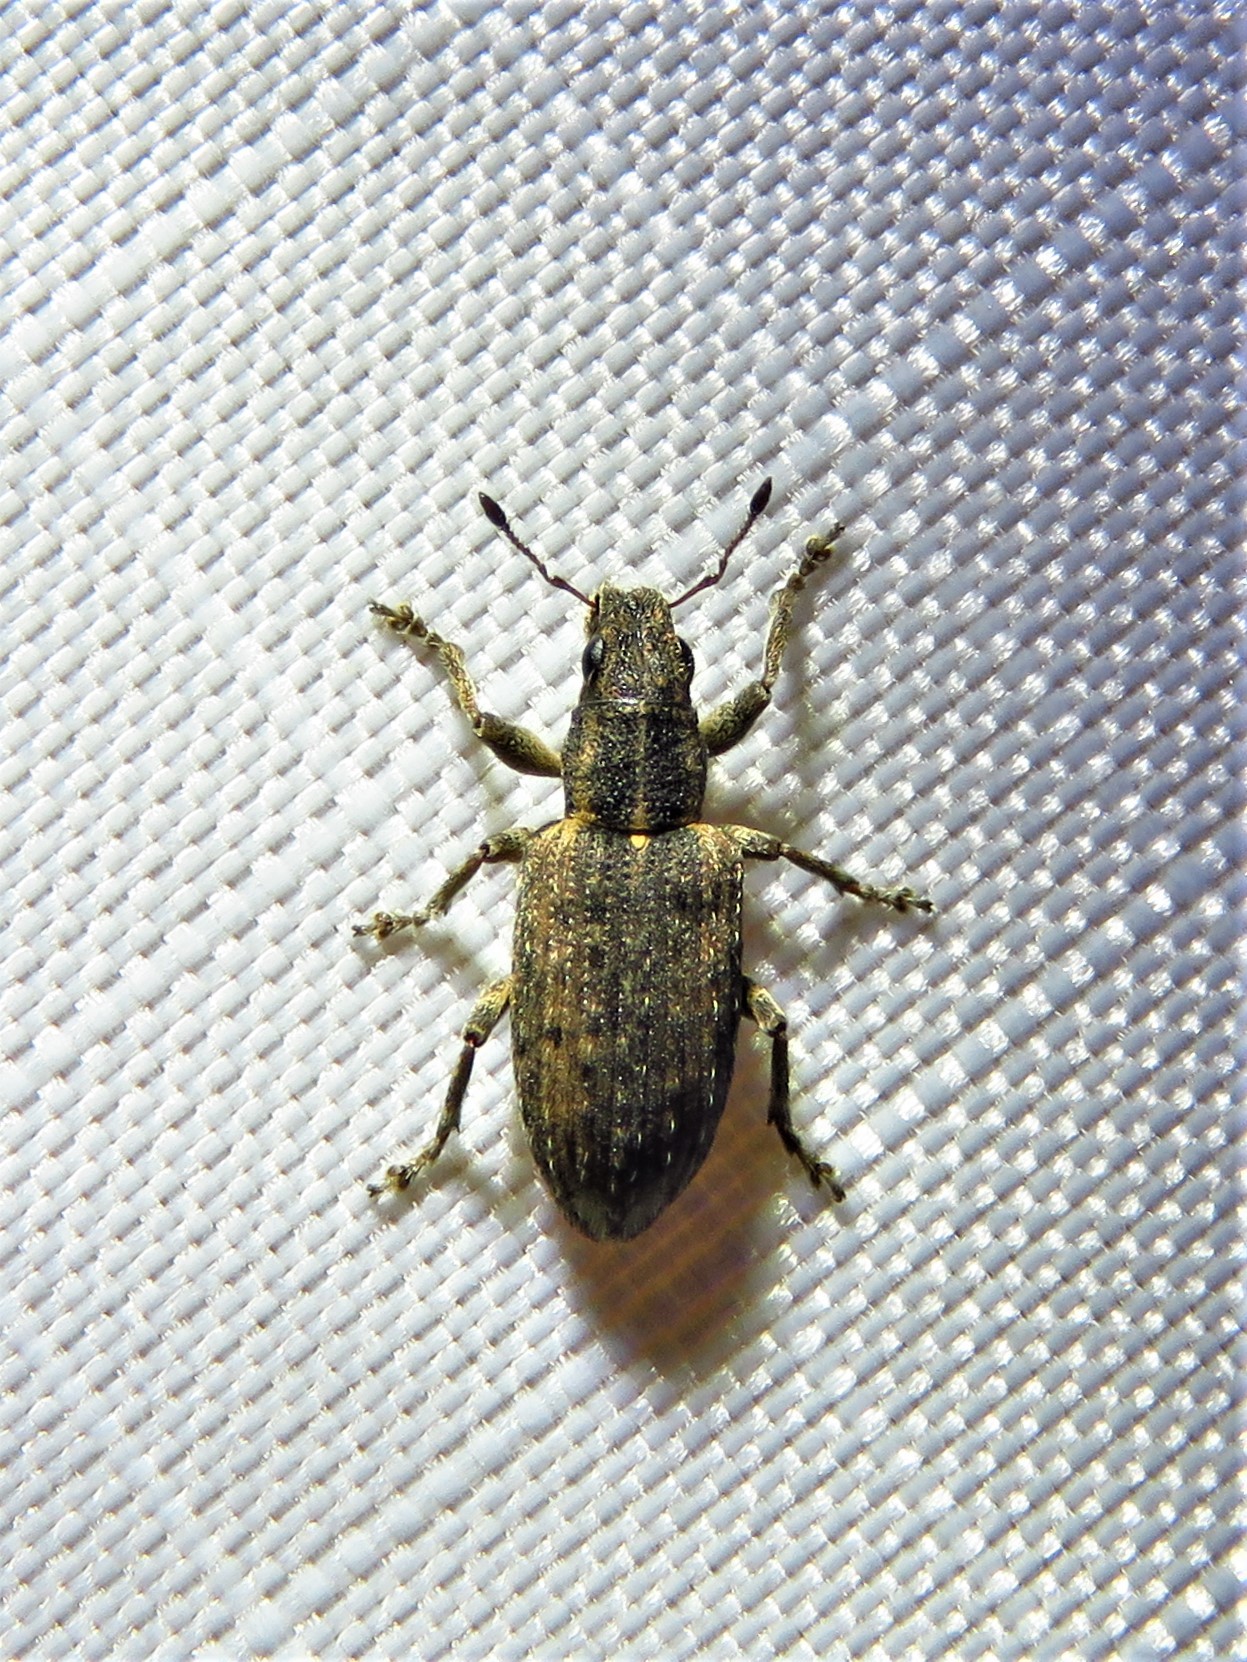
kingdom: Animalia
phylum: Arthropoda
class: Insecta
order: Coleoptera
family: Curculionidae
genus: Sitones
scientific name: Sitones californius
